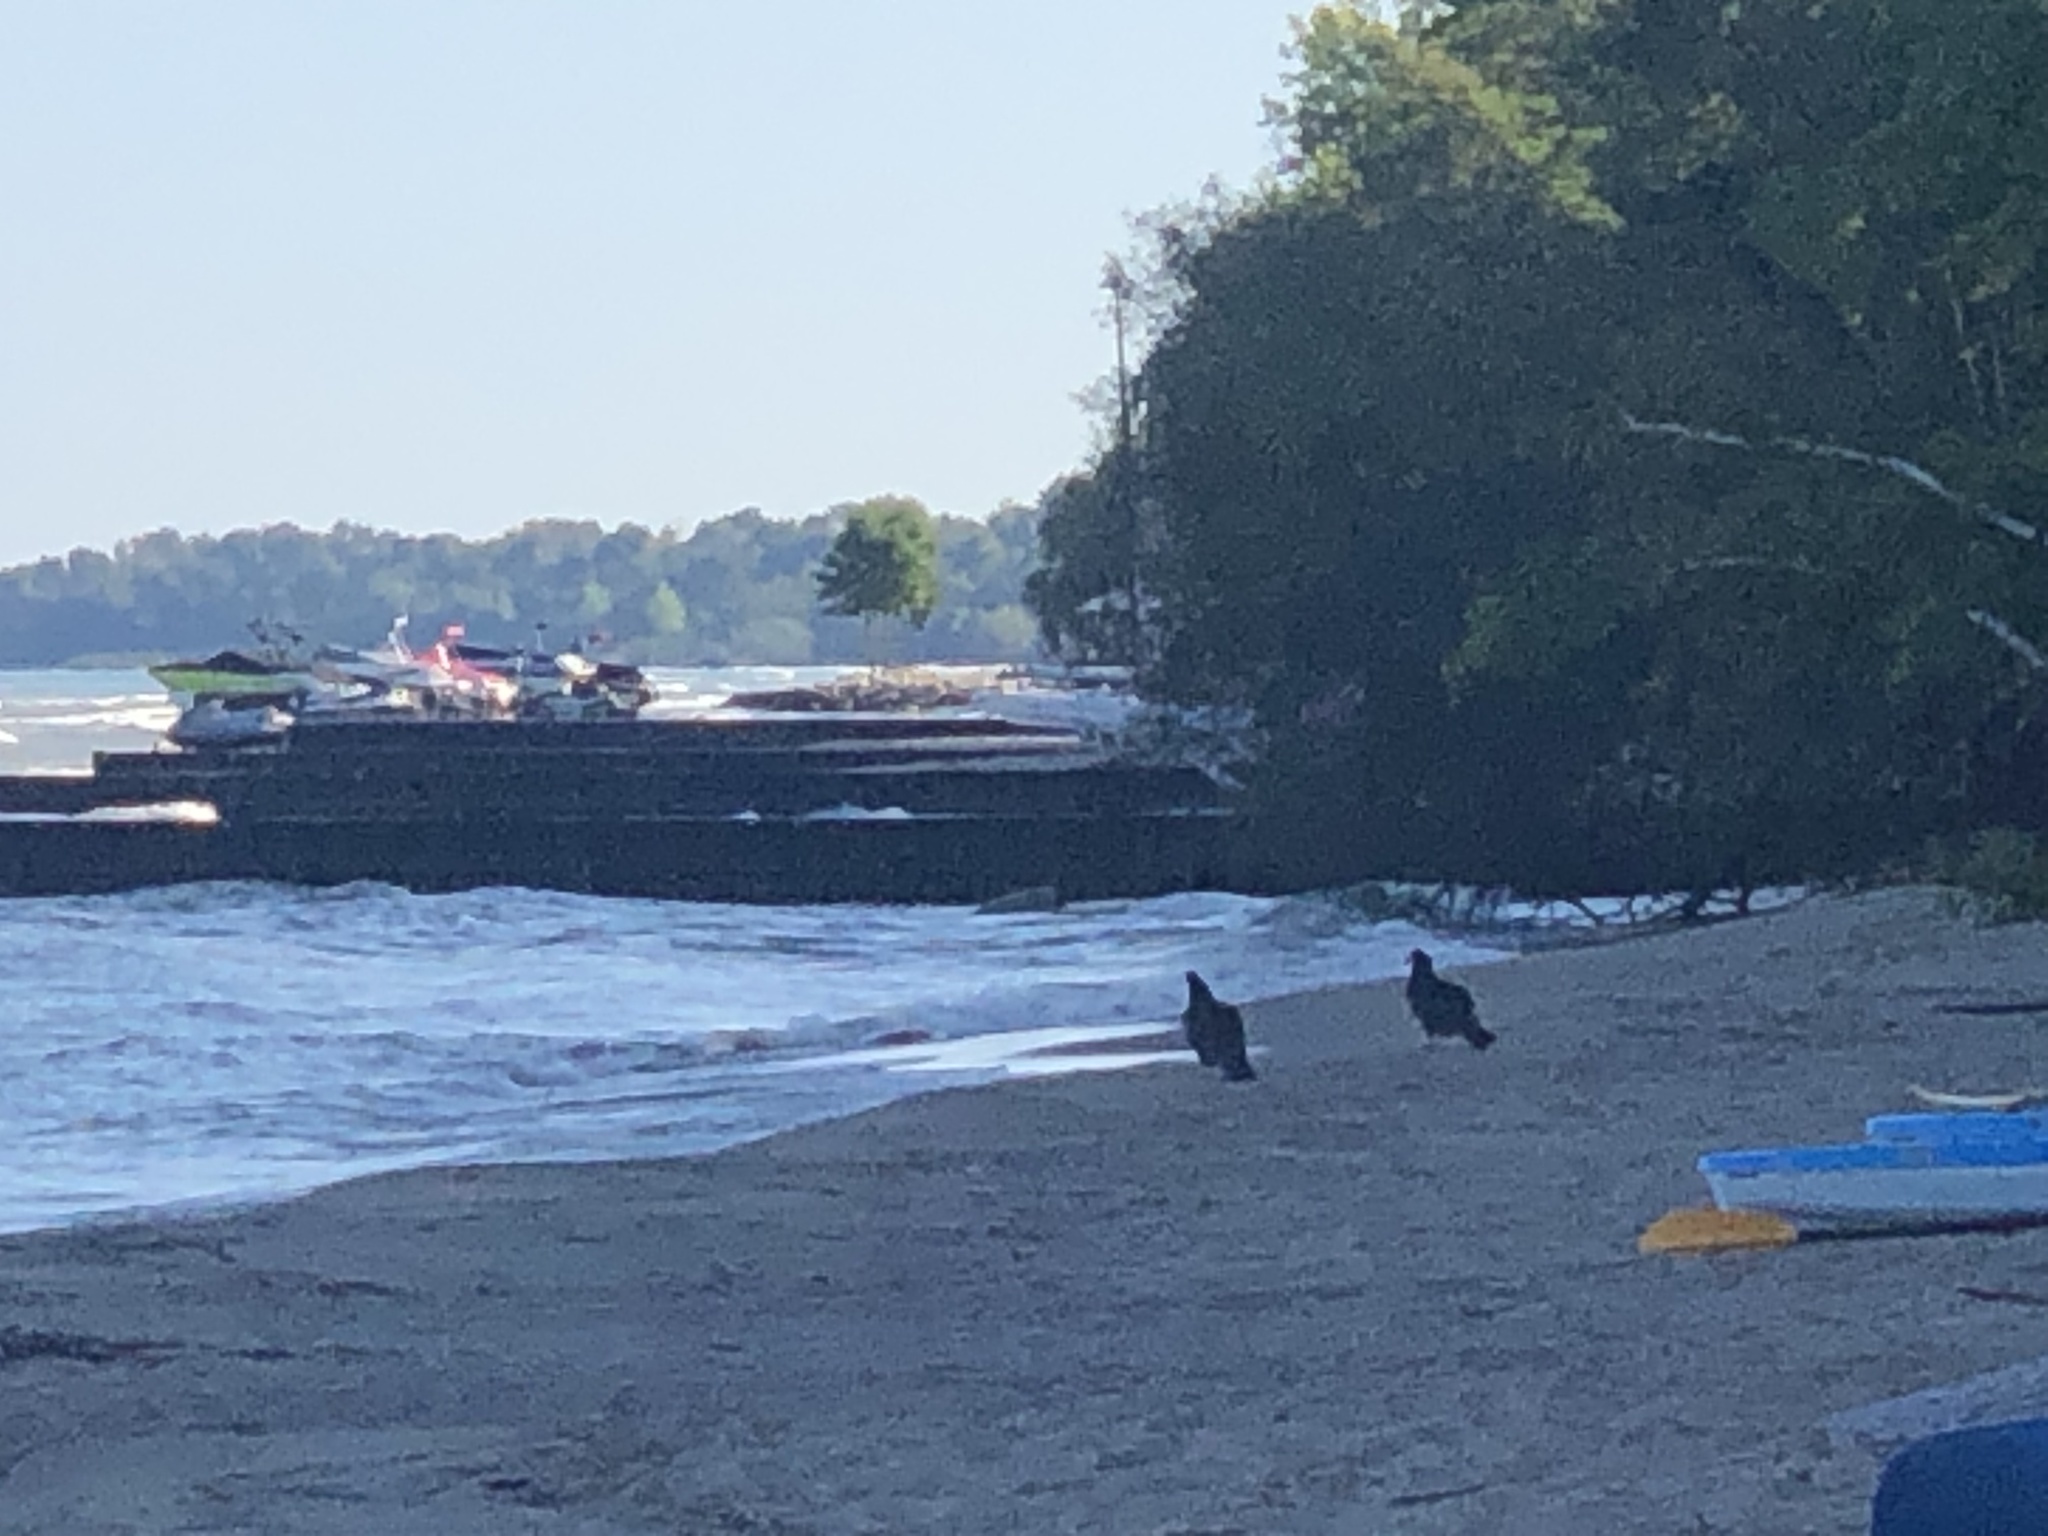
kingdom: Animalia
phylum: Chordata
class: Aves
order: Accipitriformes
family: Cathartidae
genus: Cathartes
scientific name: Cathartes aura
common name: Turkey vulture
